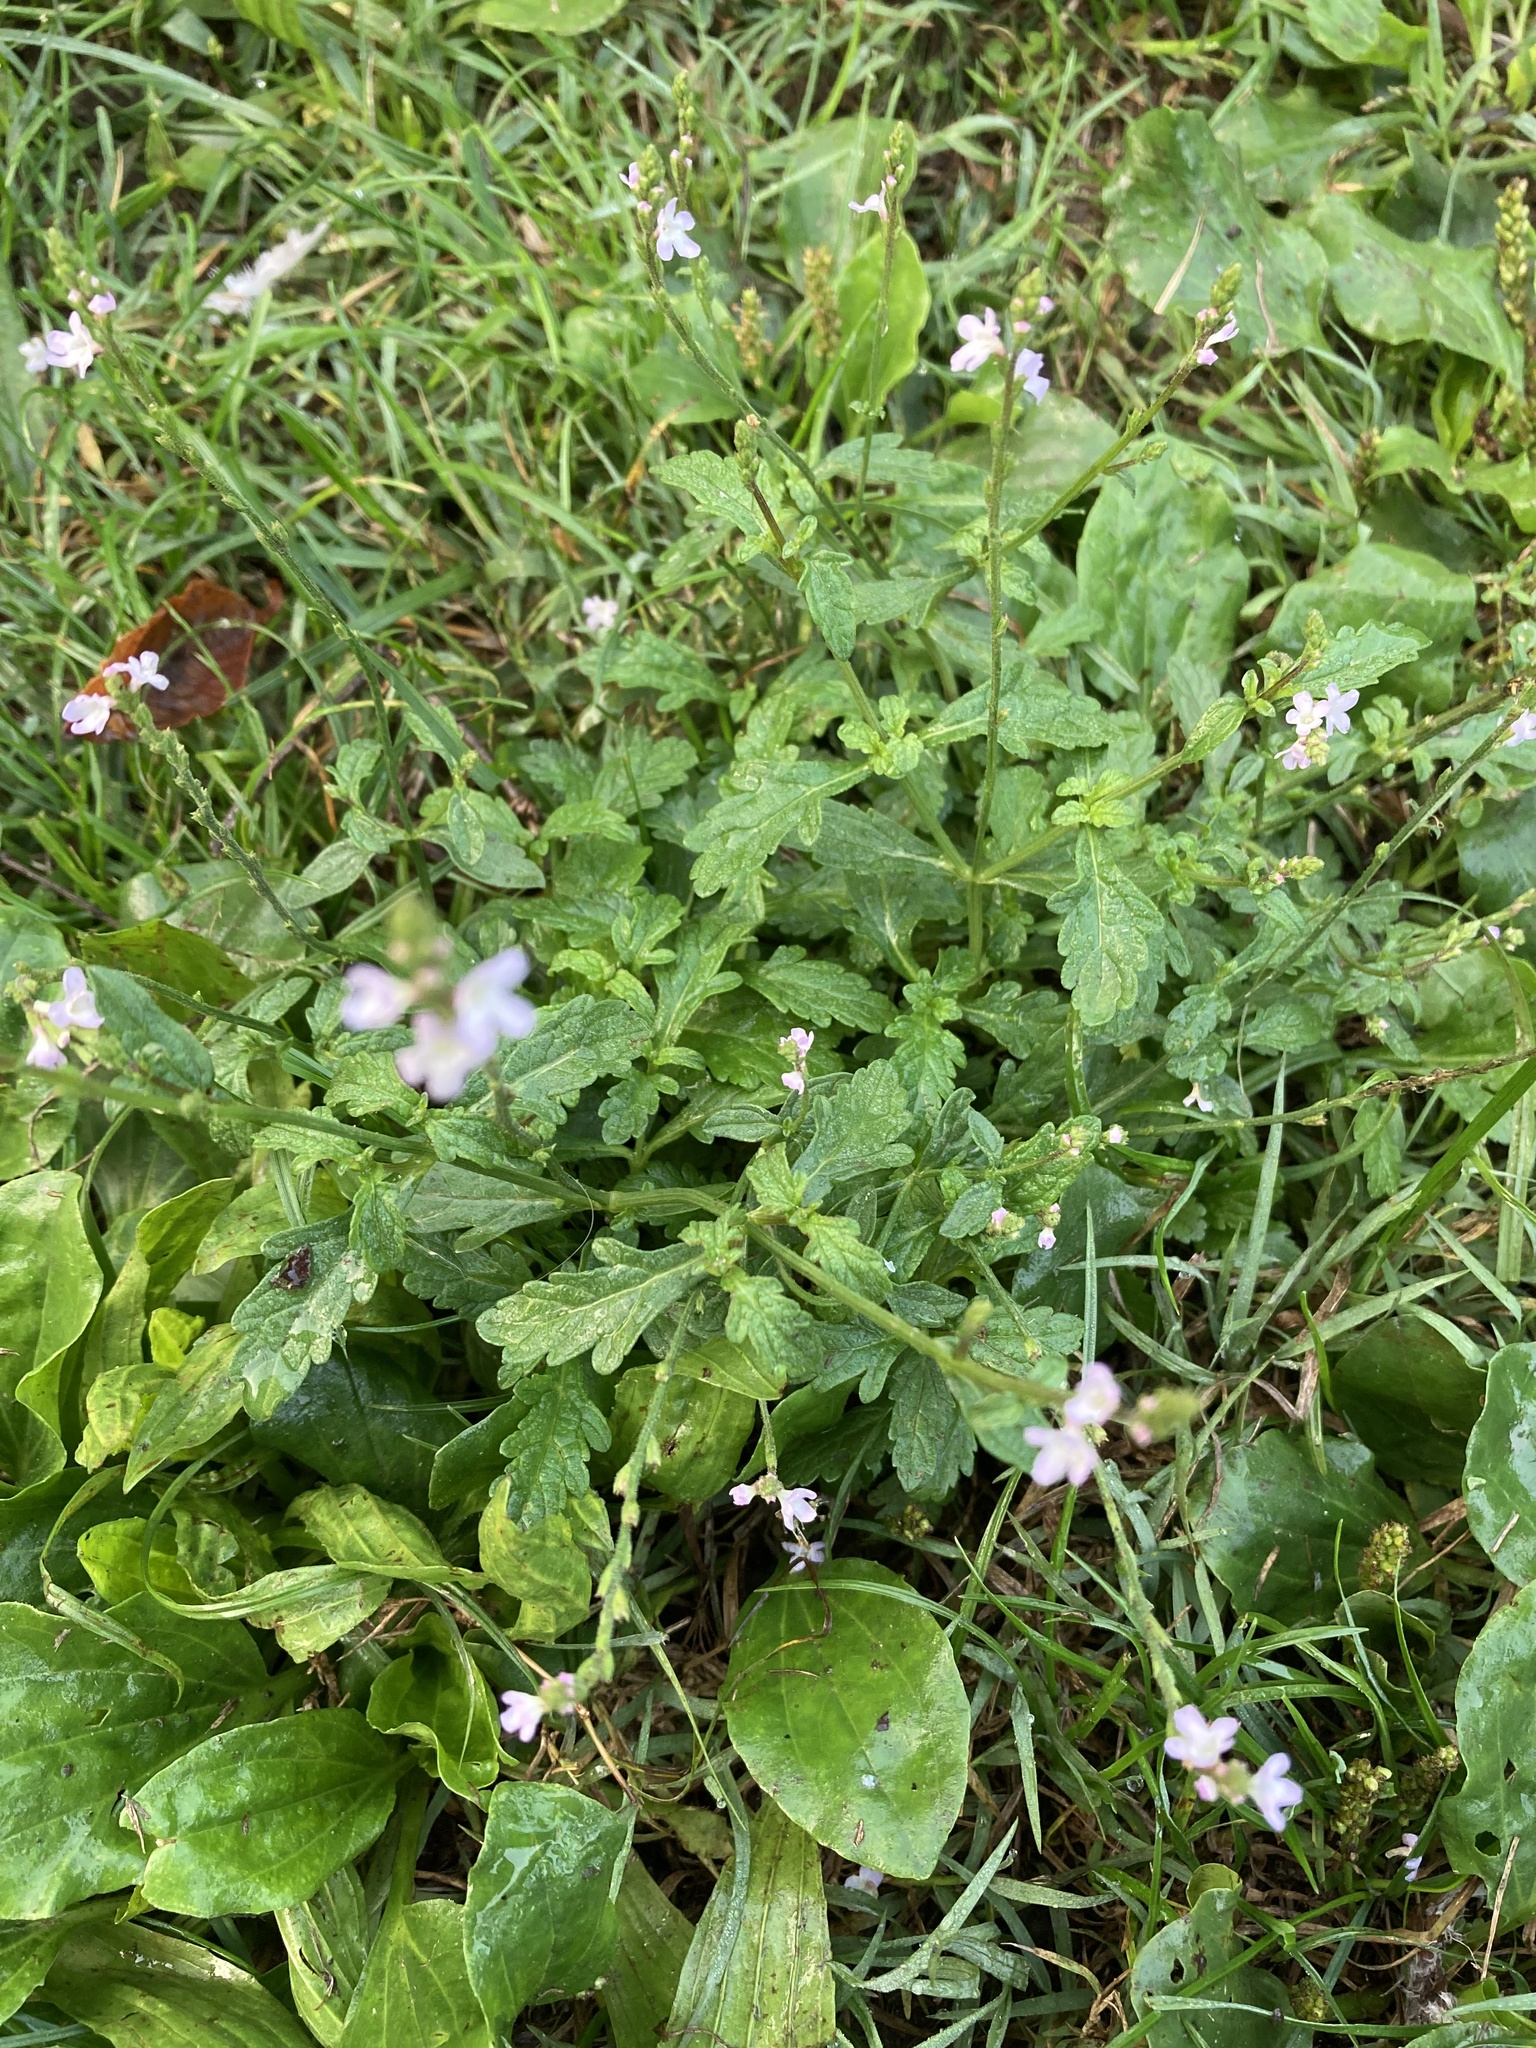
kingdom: Plantae
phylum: Tracheophyta
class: Magnoliopsida
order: Lamiales
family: Verbenaceae
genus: Verbena
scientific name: Verbena officinalis
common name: Vervain
